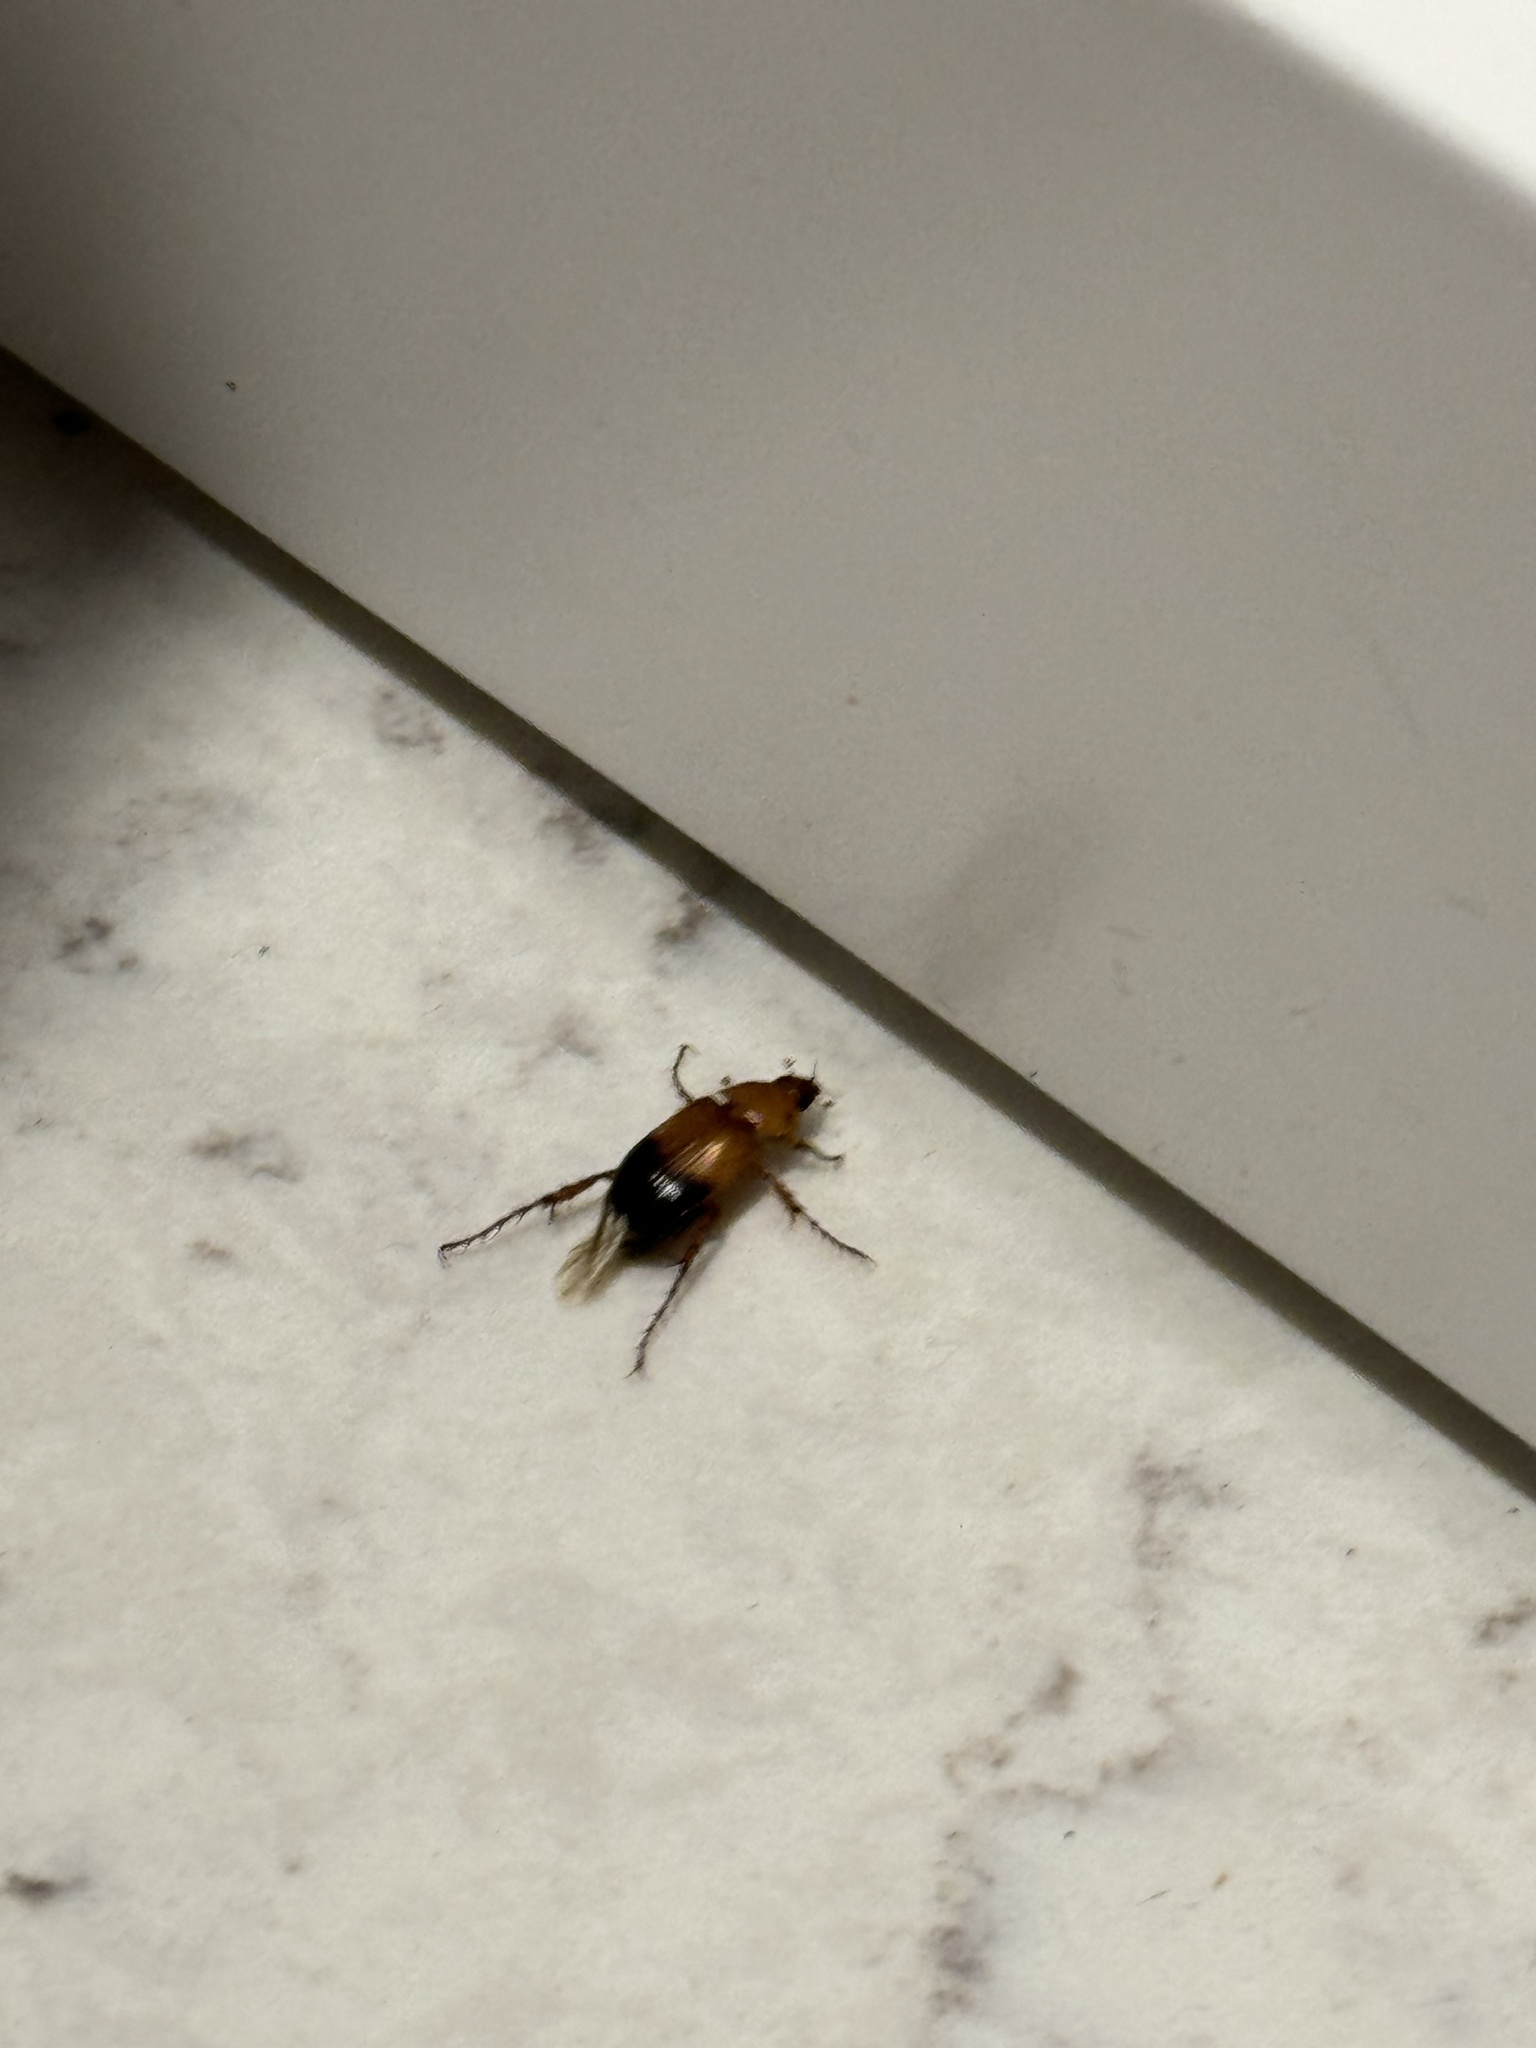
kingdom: Animalia
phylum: Arthropoda
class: Insecta
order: Coleoptera
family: Scarabaeidae
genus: Phyllotocus
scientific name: Phyllotocus macleayi
